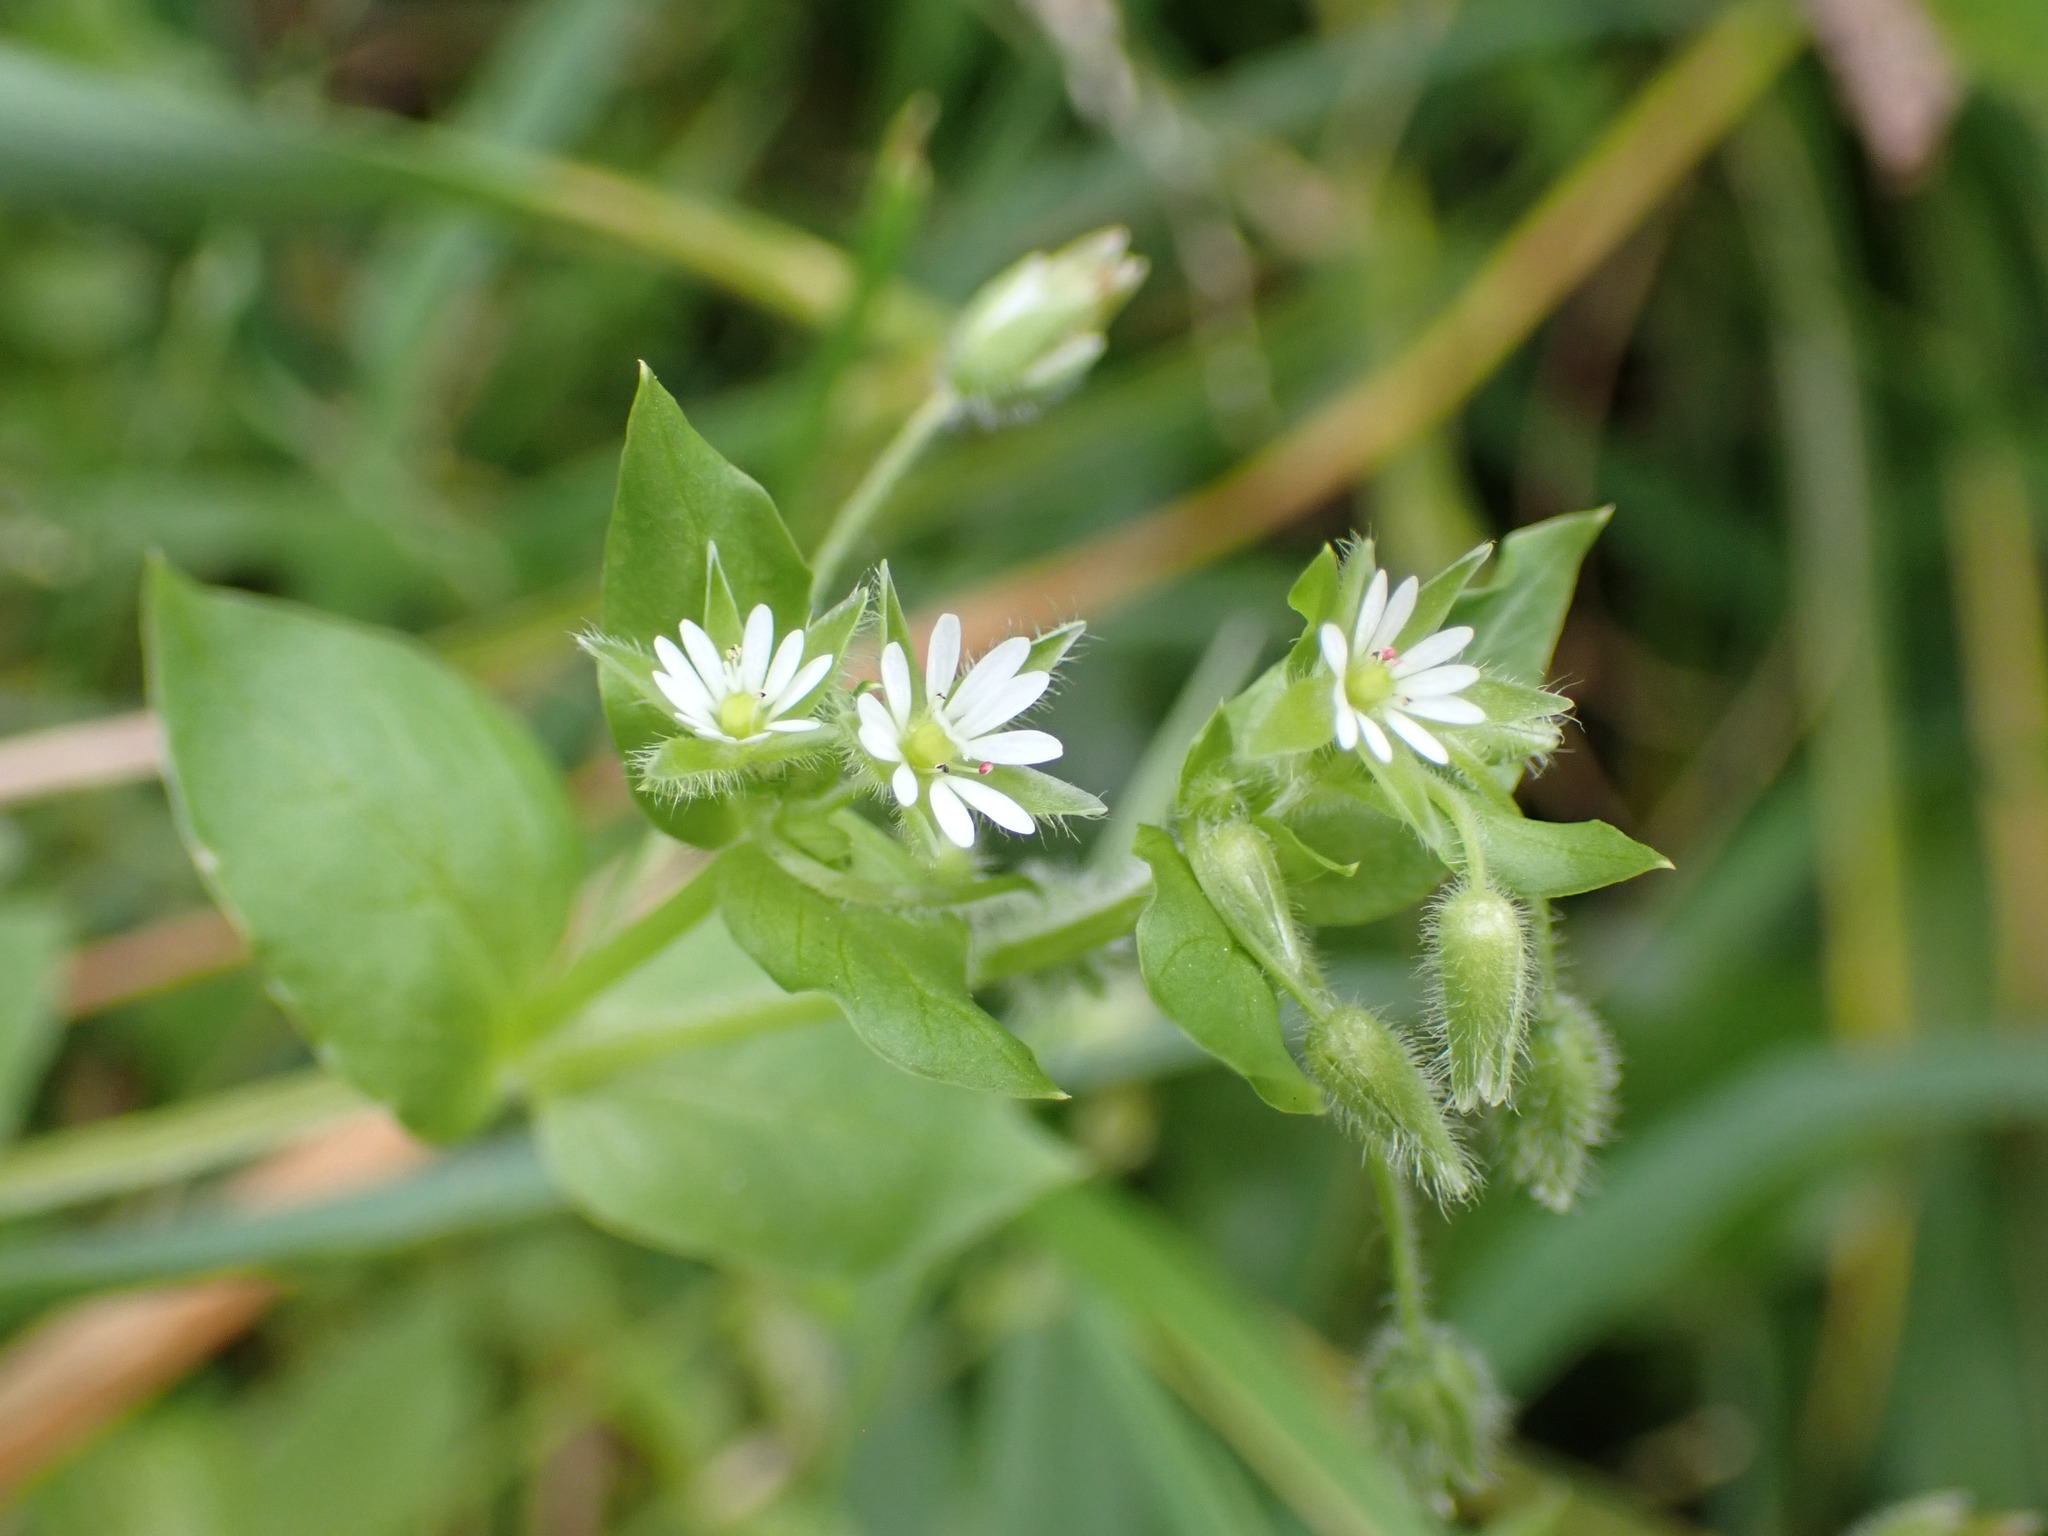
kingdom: Plantae
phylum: Tracheophyta
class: Magnoliopsida
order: Caryophyllales
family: Caryophyllaceae
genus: Stellaria
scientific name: Stellaria media
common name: Common chickweed
